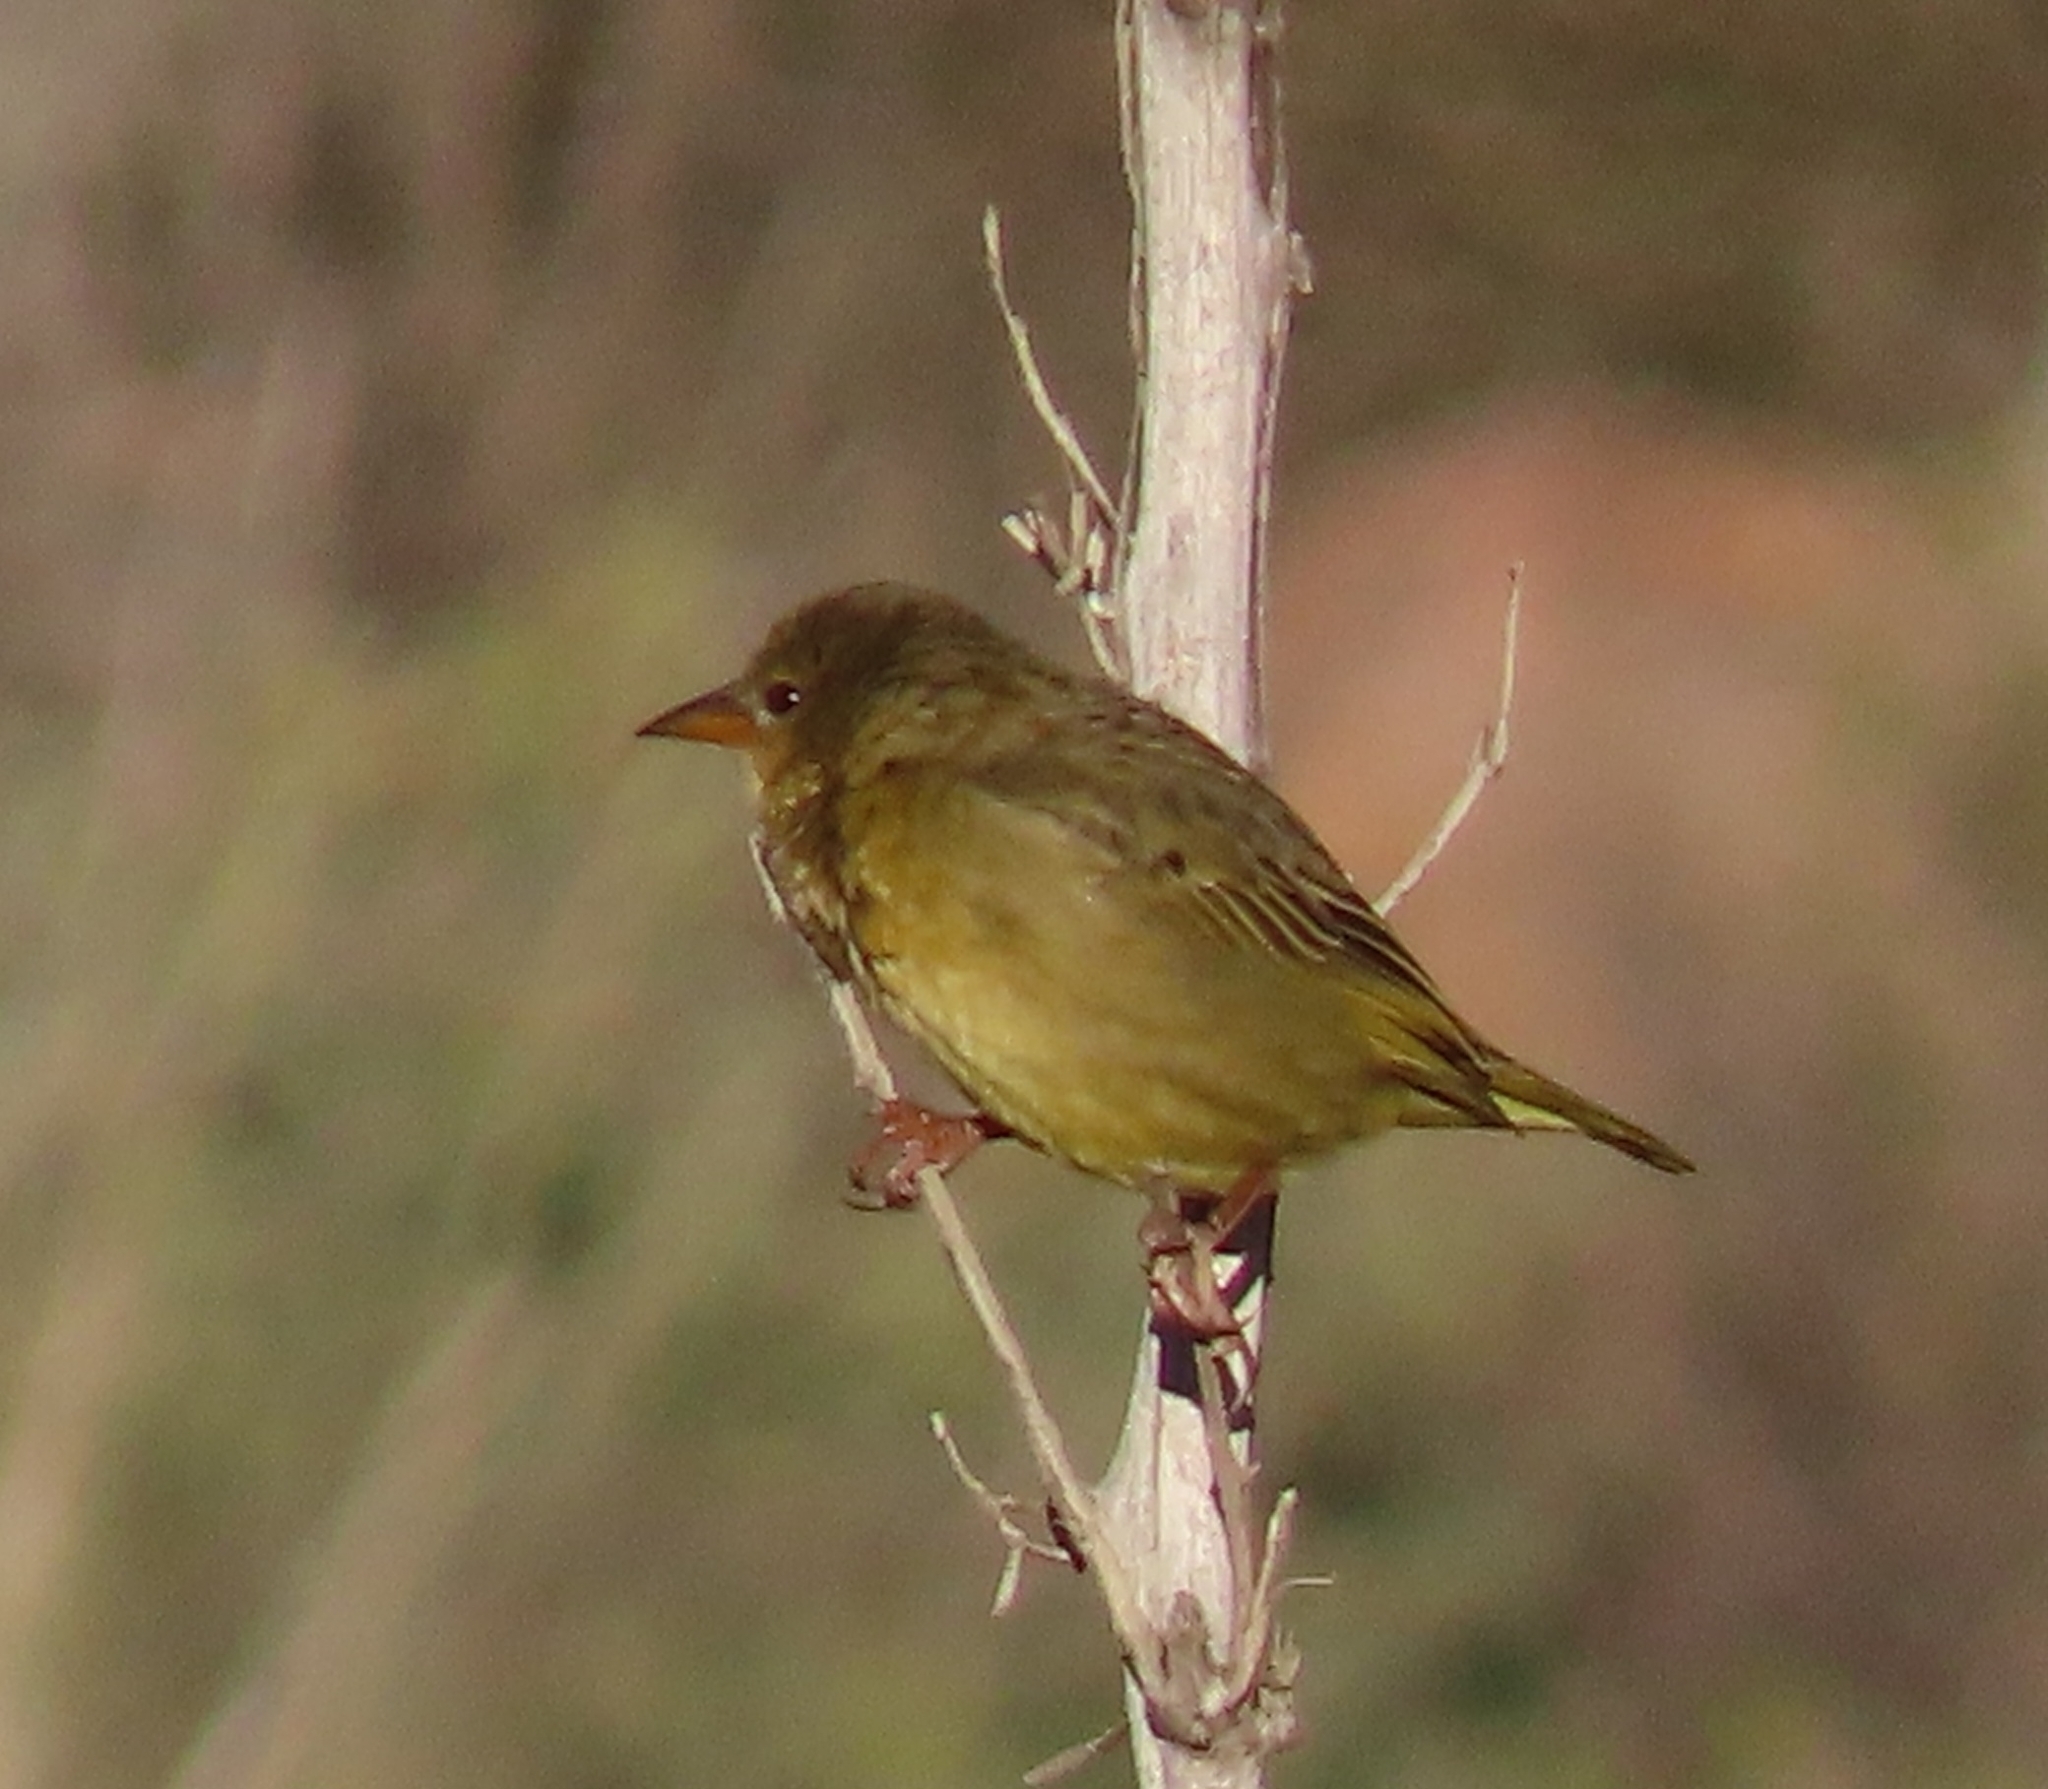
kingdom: Animalia
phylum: Chordata
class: Aves
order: Passeriformes
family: Ploceidae
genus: Ploceus
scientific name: Ploceus capensis
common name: Cape weaver
